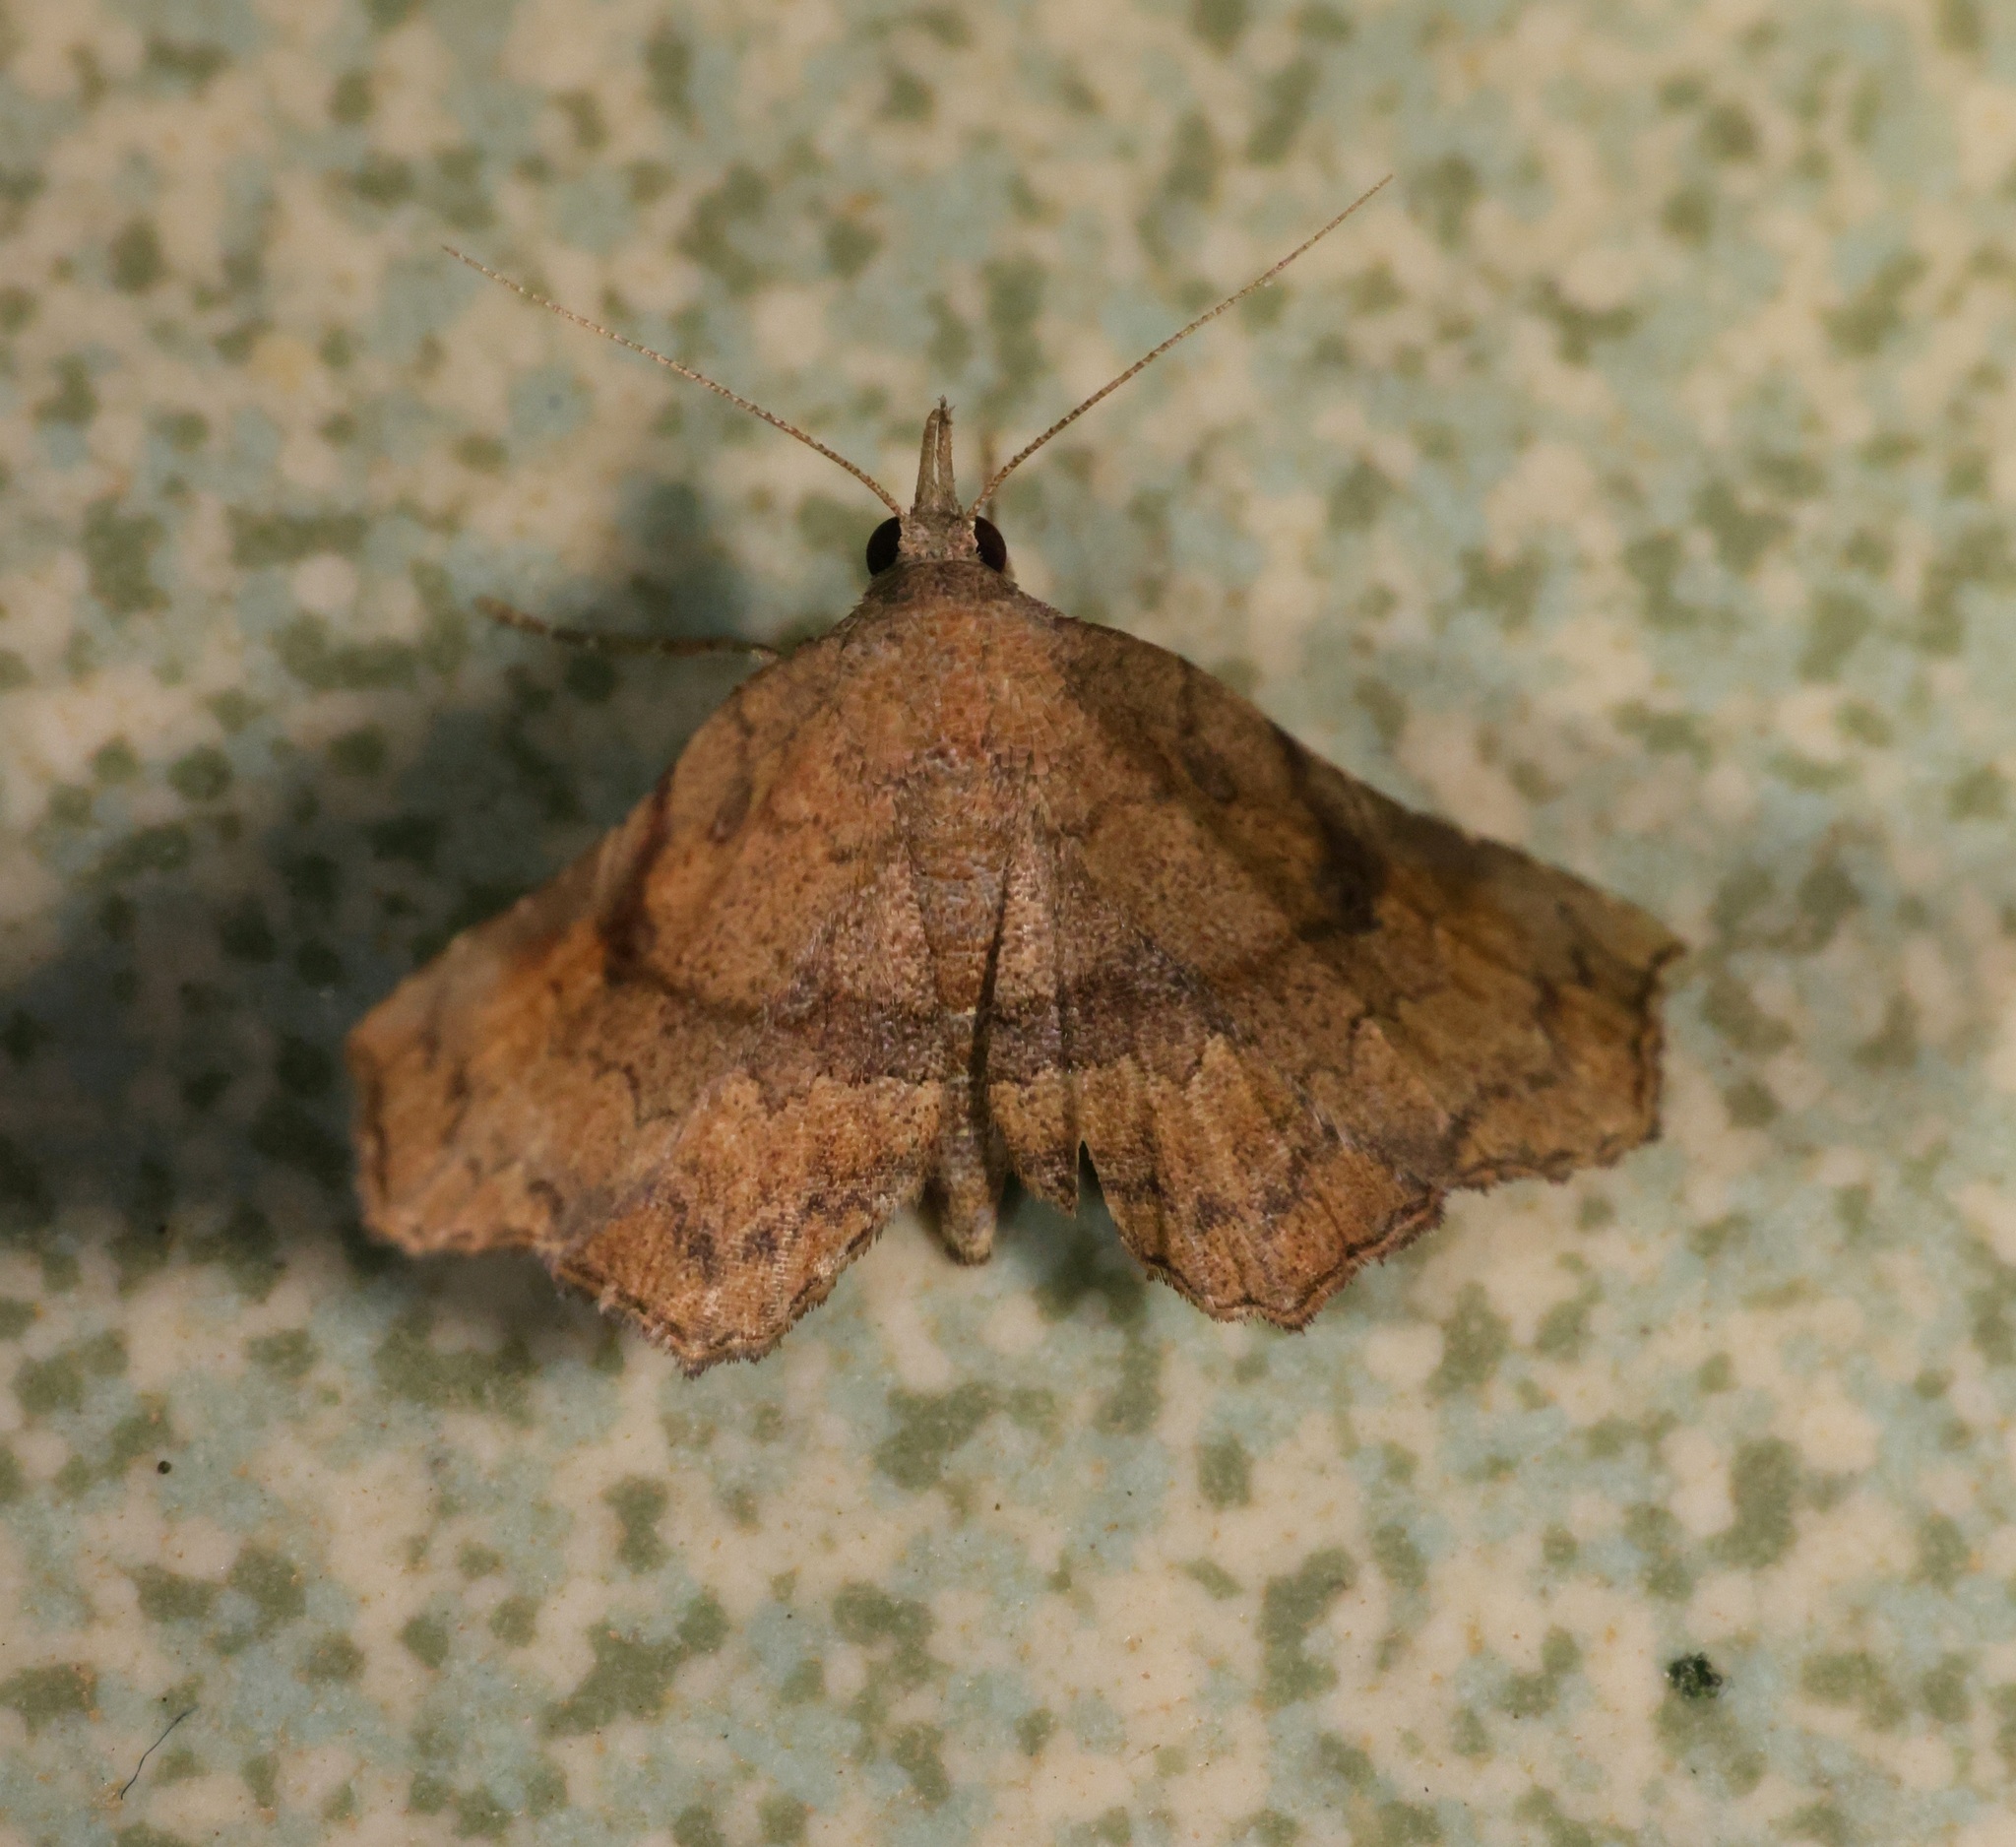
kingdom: Animalia
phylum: Arthropoda
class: Insecta
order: Lepidoptera
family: Erebidae
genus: Throana
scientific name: Throana pectinifer
